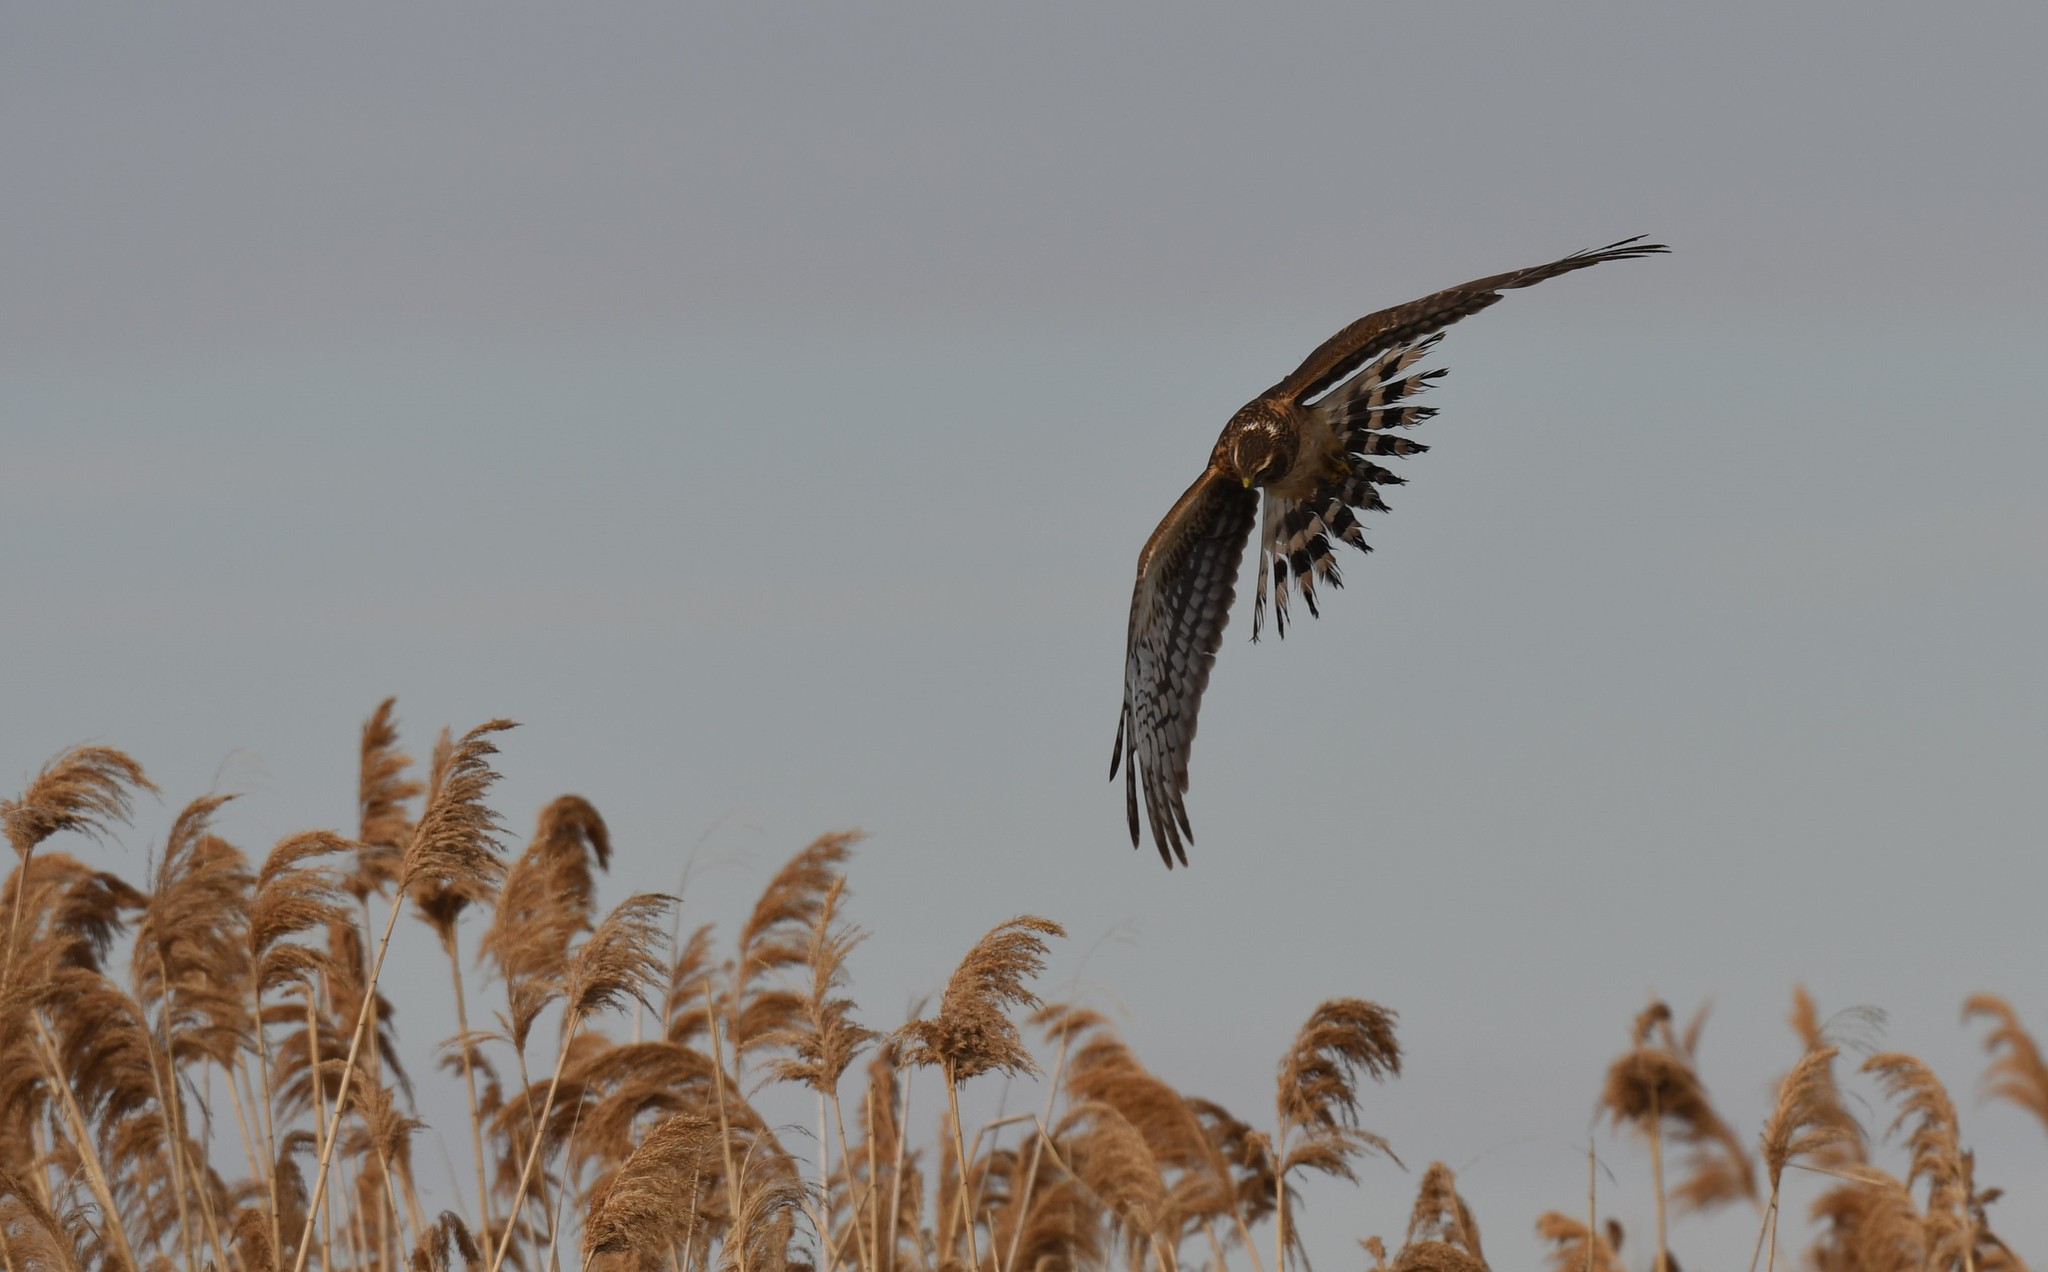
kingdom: Animalia
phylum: Chordata
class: Aves
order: Accipitriformes
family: Accipitridae
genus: Circus
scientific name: Circus cyaneus
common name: Hen harrier
